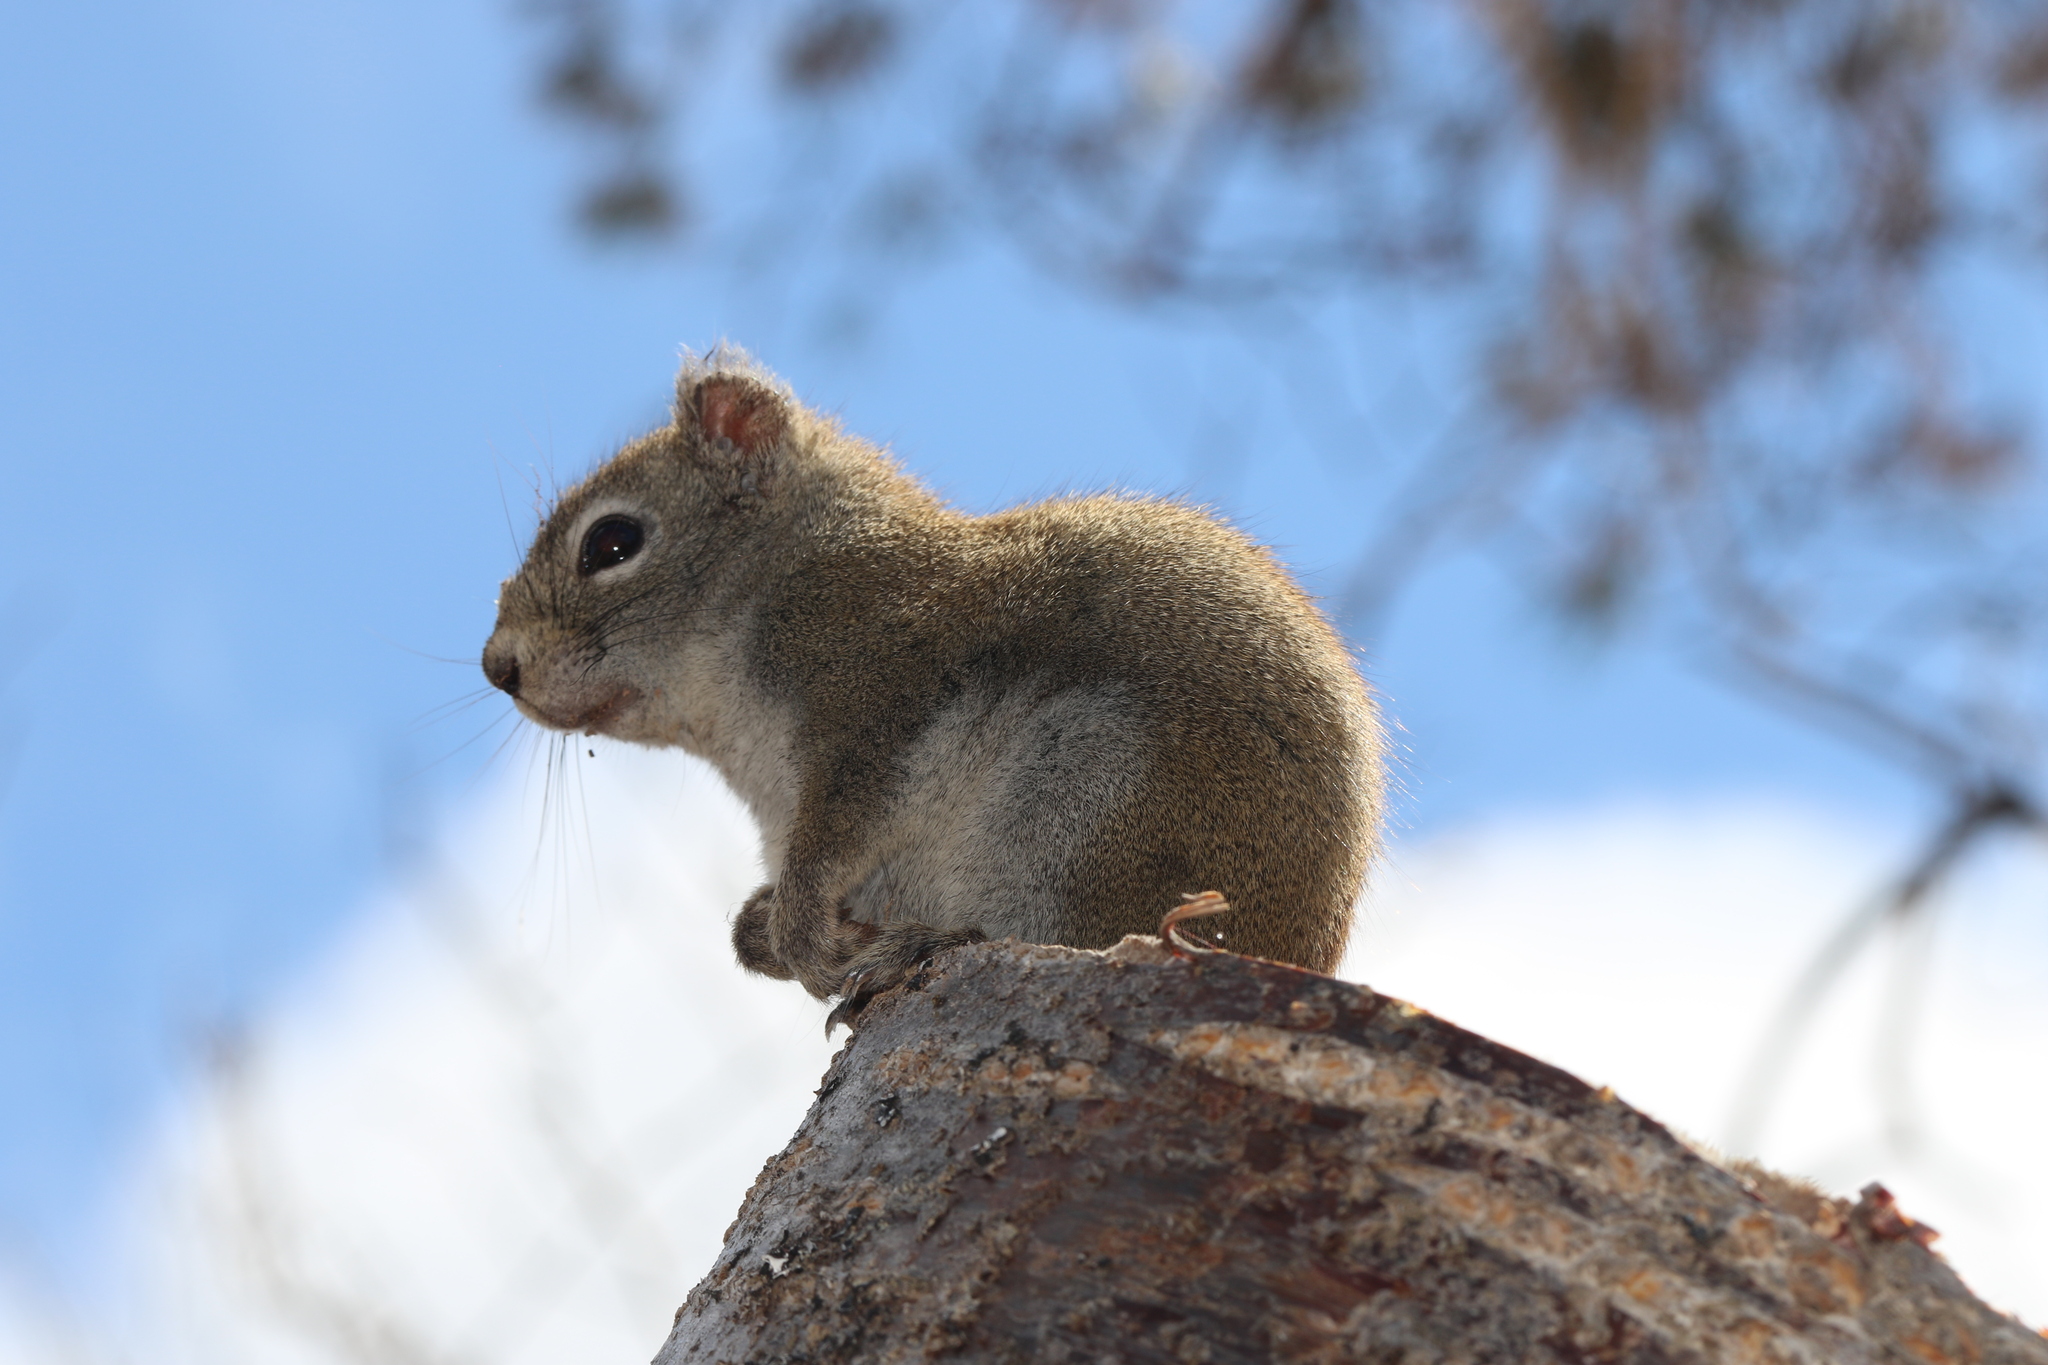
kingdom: Animalia
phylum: Chordata
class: Mammalia
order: Rodentia
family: Sciuridae
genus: Tamiasciurus
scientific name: Tamiasciurus hudsonicus
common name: Red squirrel
